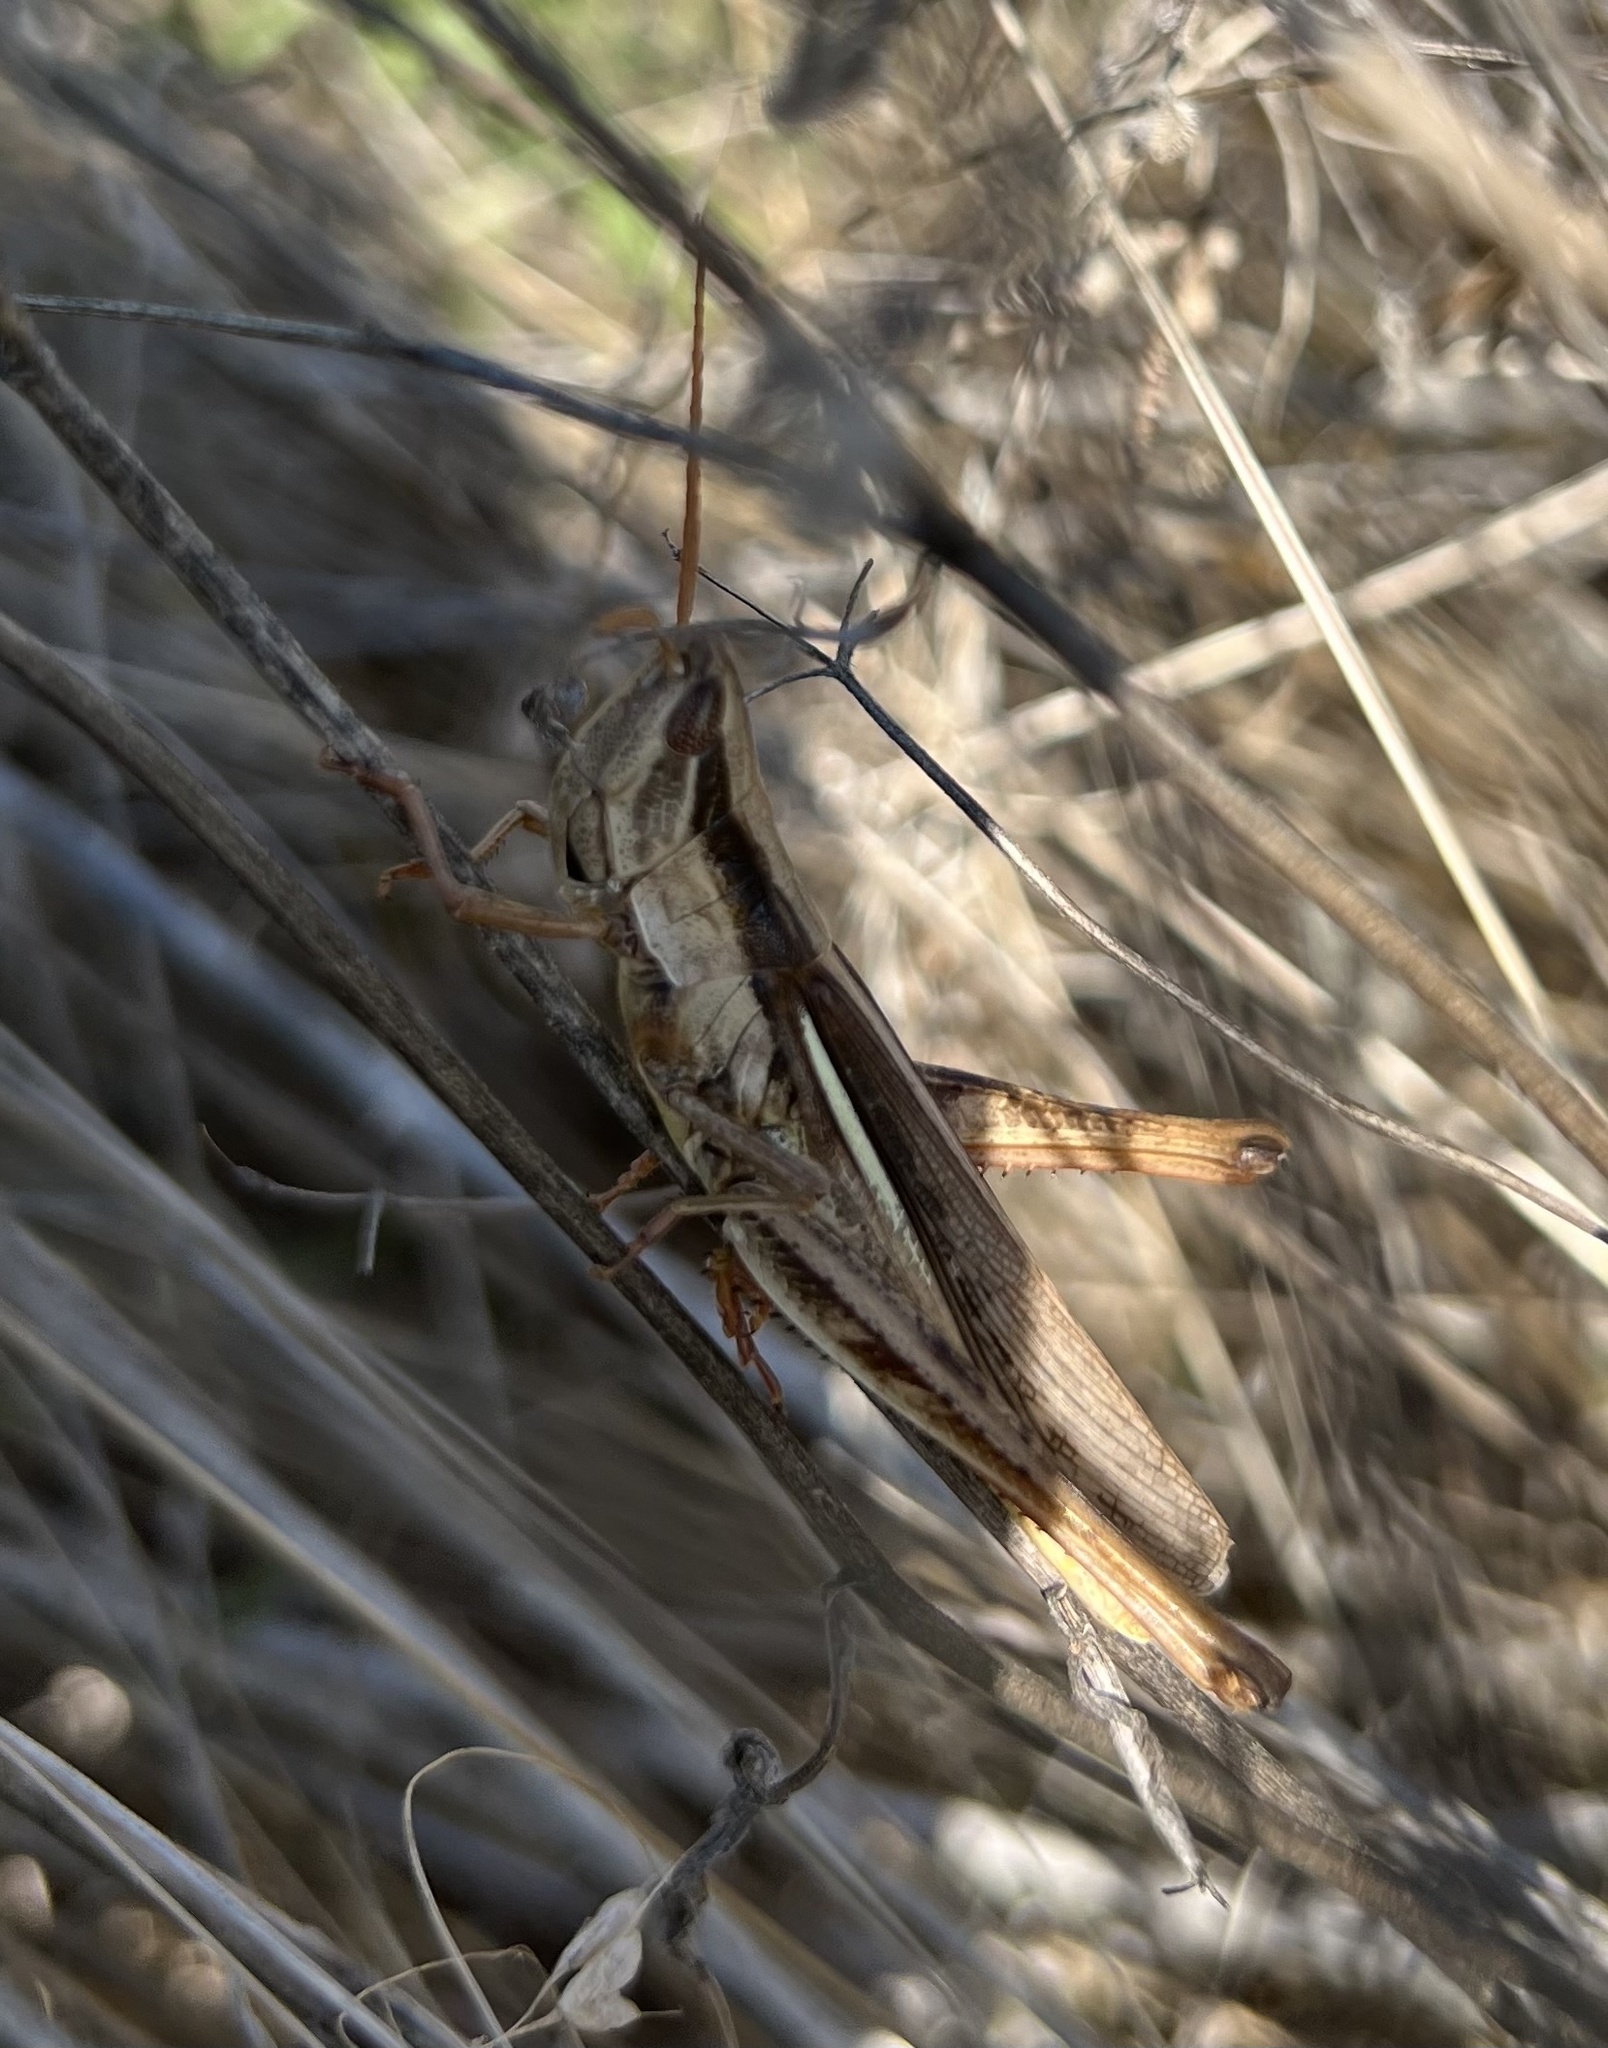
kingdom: Animalia
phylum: Arthropoda
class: Insecta
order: Orthoptera
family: Acrididae
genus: Mermiria
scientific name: Mermiria bivittata
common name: Two-striped mermiria grasshopper
